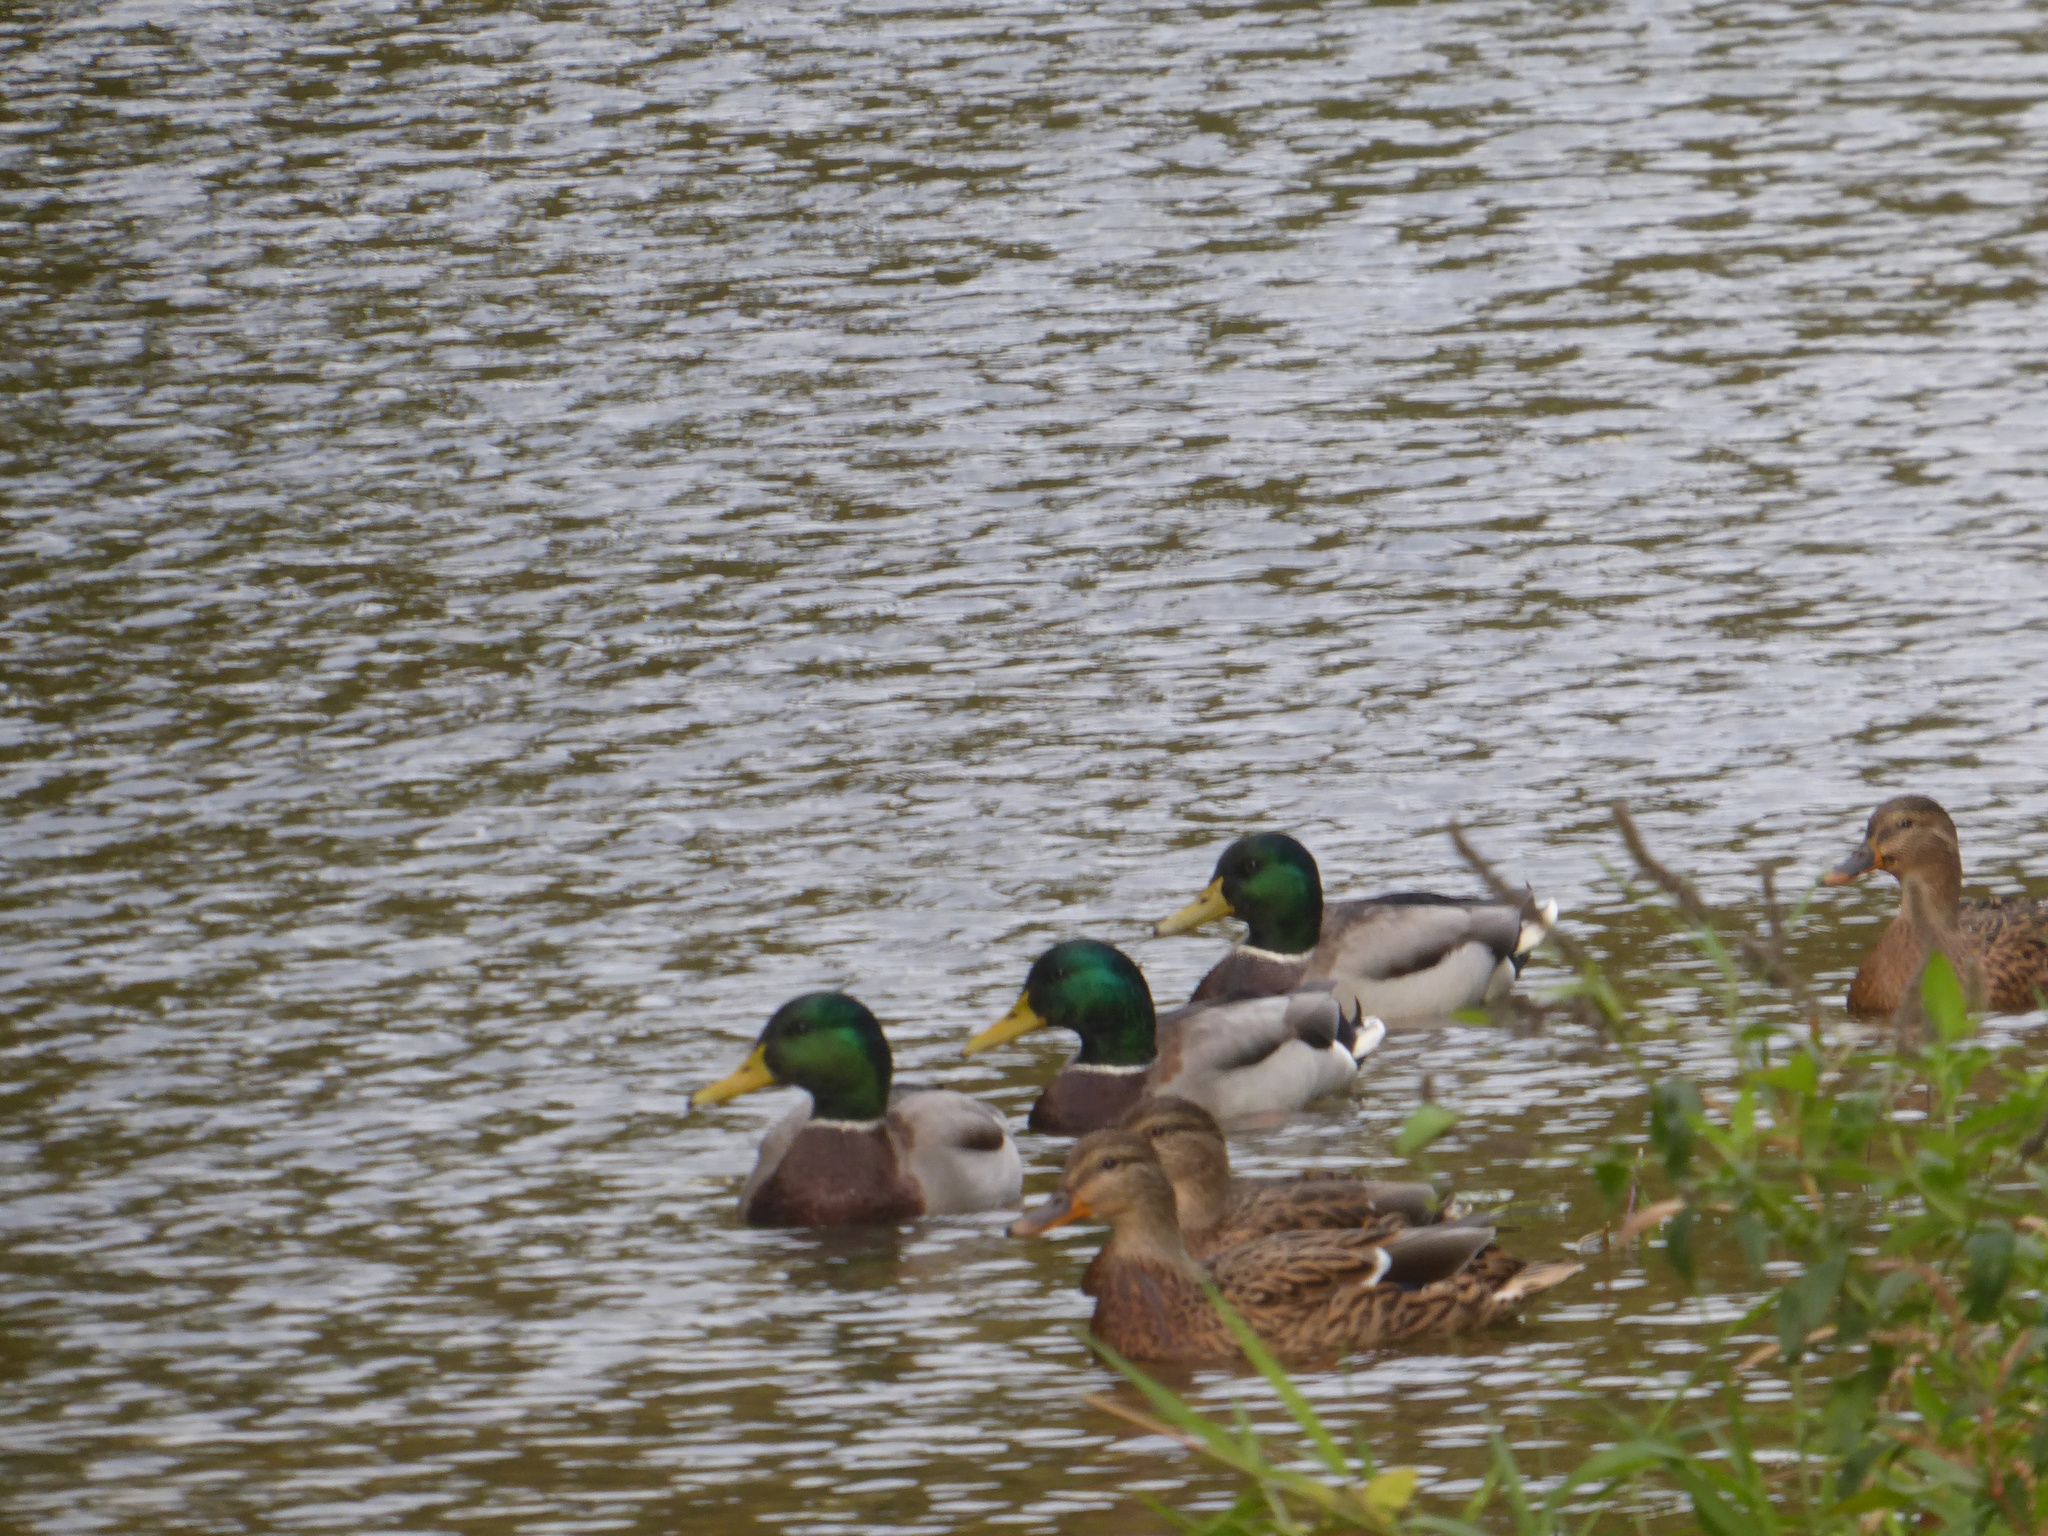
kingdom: Animalia
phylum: Chordata
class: Aves
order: Anseriformes
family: Anatidae
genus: Anas
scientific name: Anas platyrhynchos
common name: Mallard
